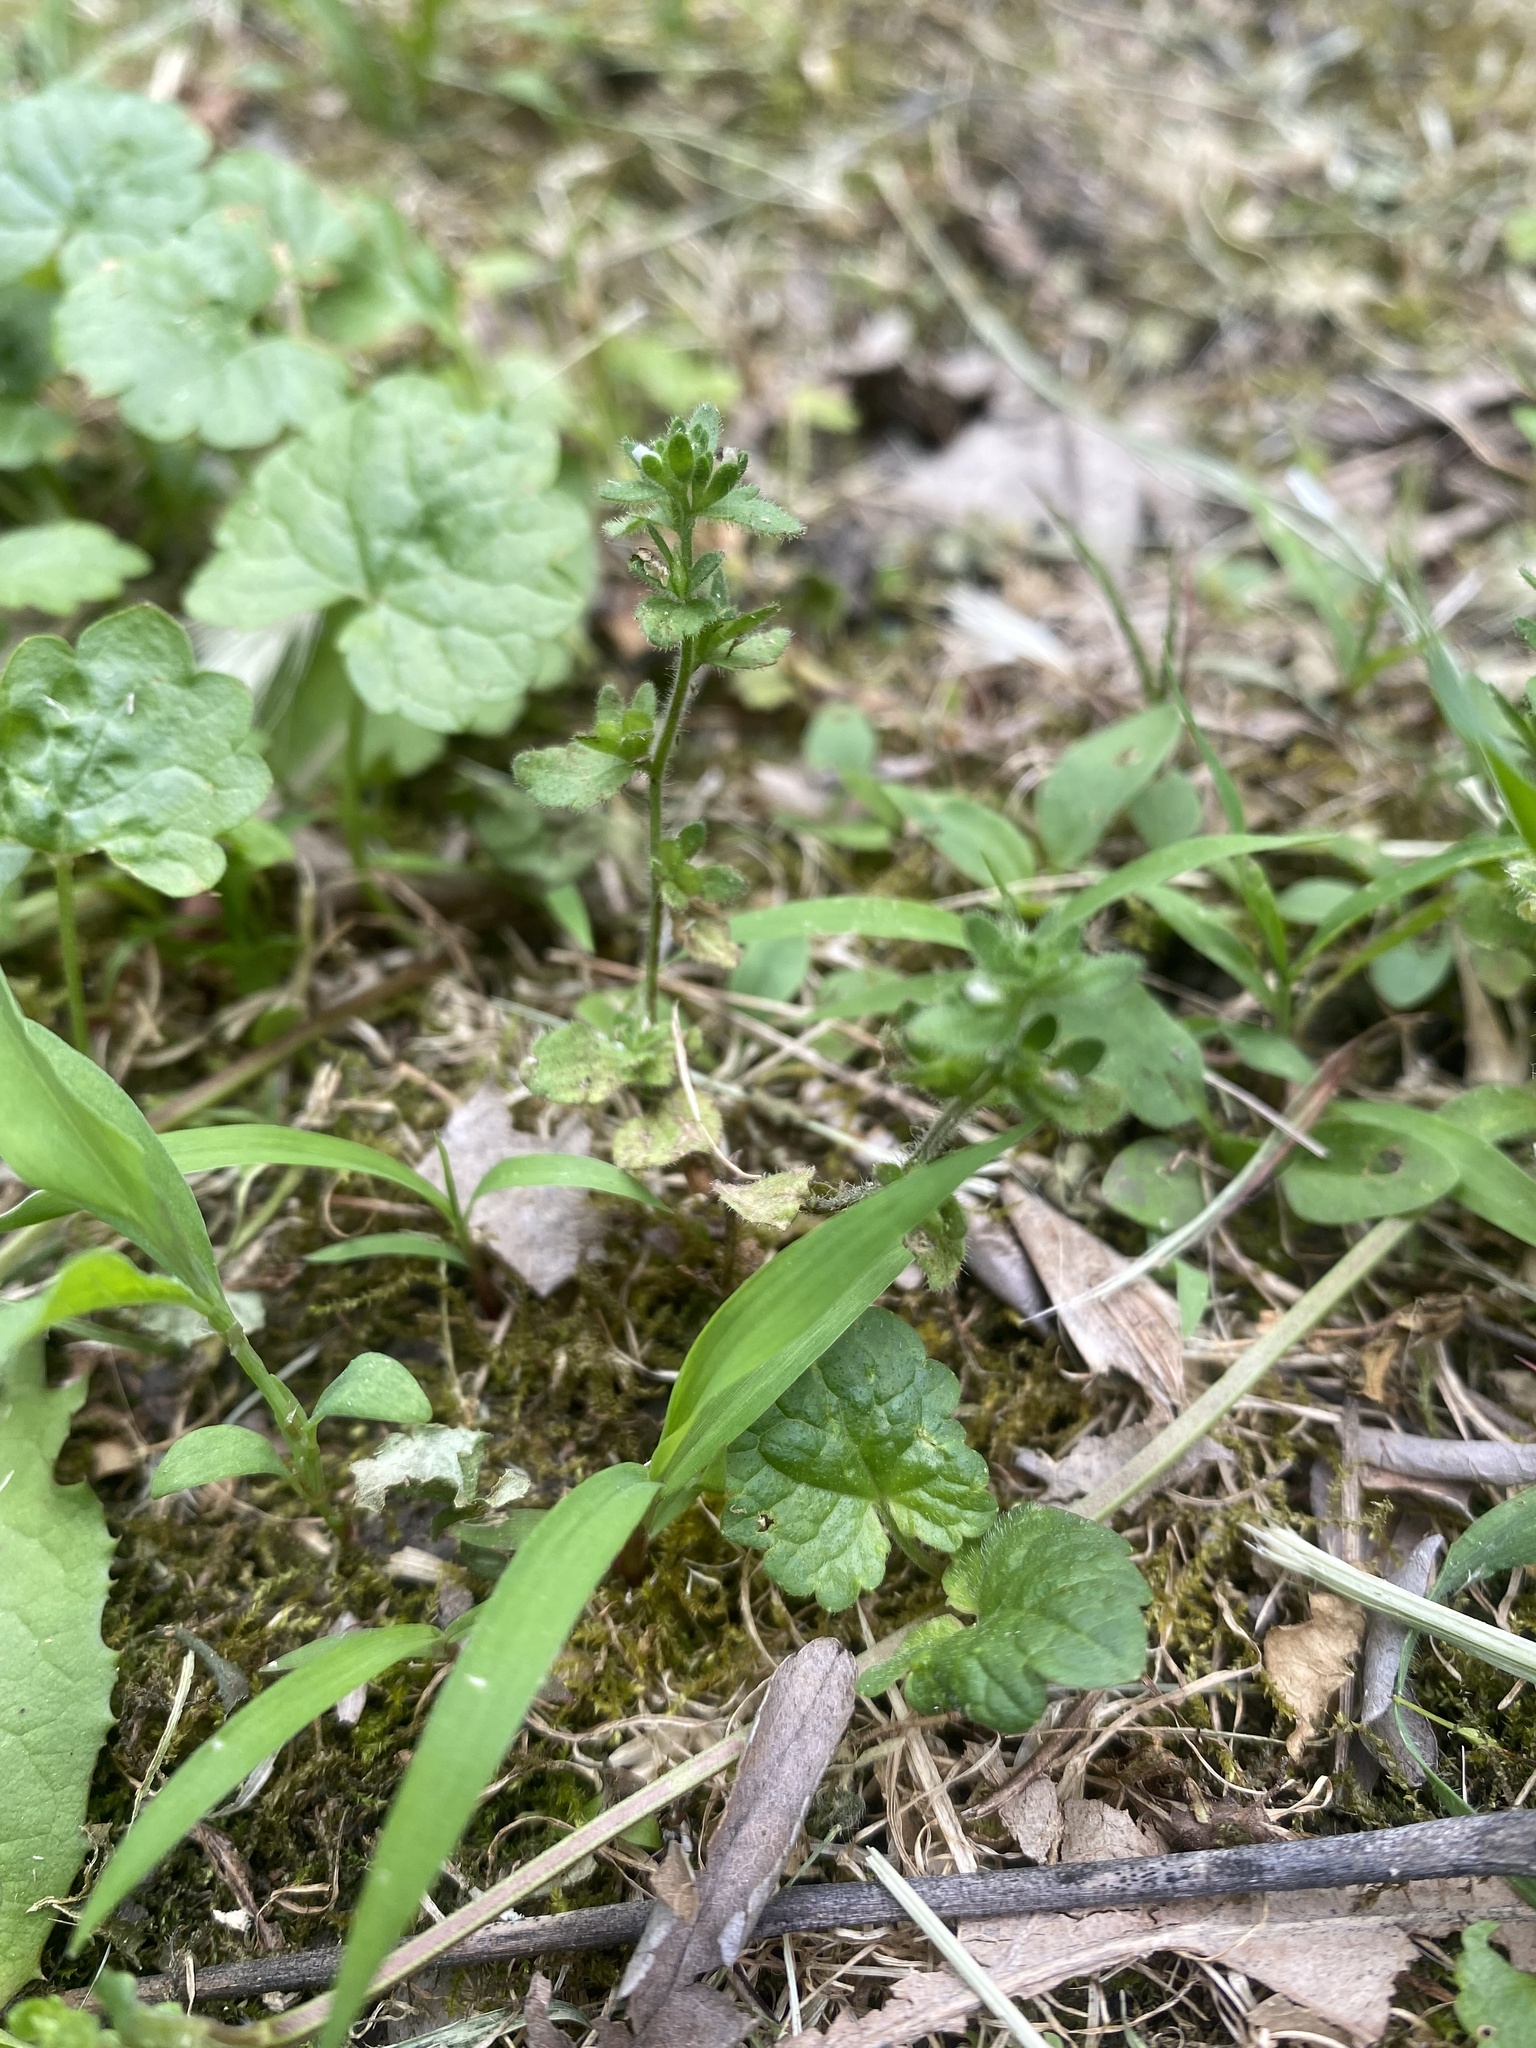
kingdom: Plantae
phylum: Tracheophyta
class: Magnoliopsida
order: Lamiales
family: Plantaginaceae
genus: Veronica
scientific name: Veronica arvensis
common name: Corn speedwell
